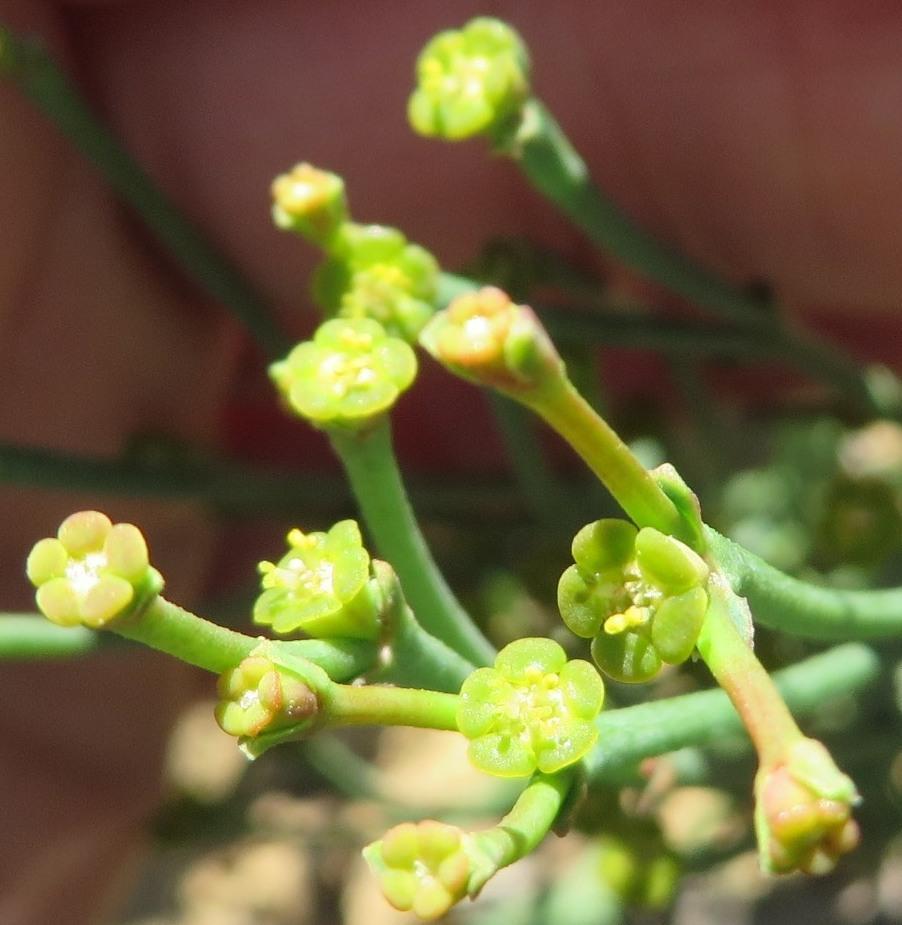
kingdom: Plantae
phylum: Tracheophyta
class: Magnoliopsida
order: Malpighiales
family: Euphorbiaceae
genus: Euphorbia
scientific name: Euphorbia tenax
